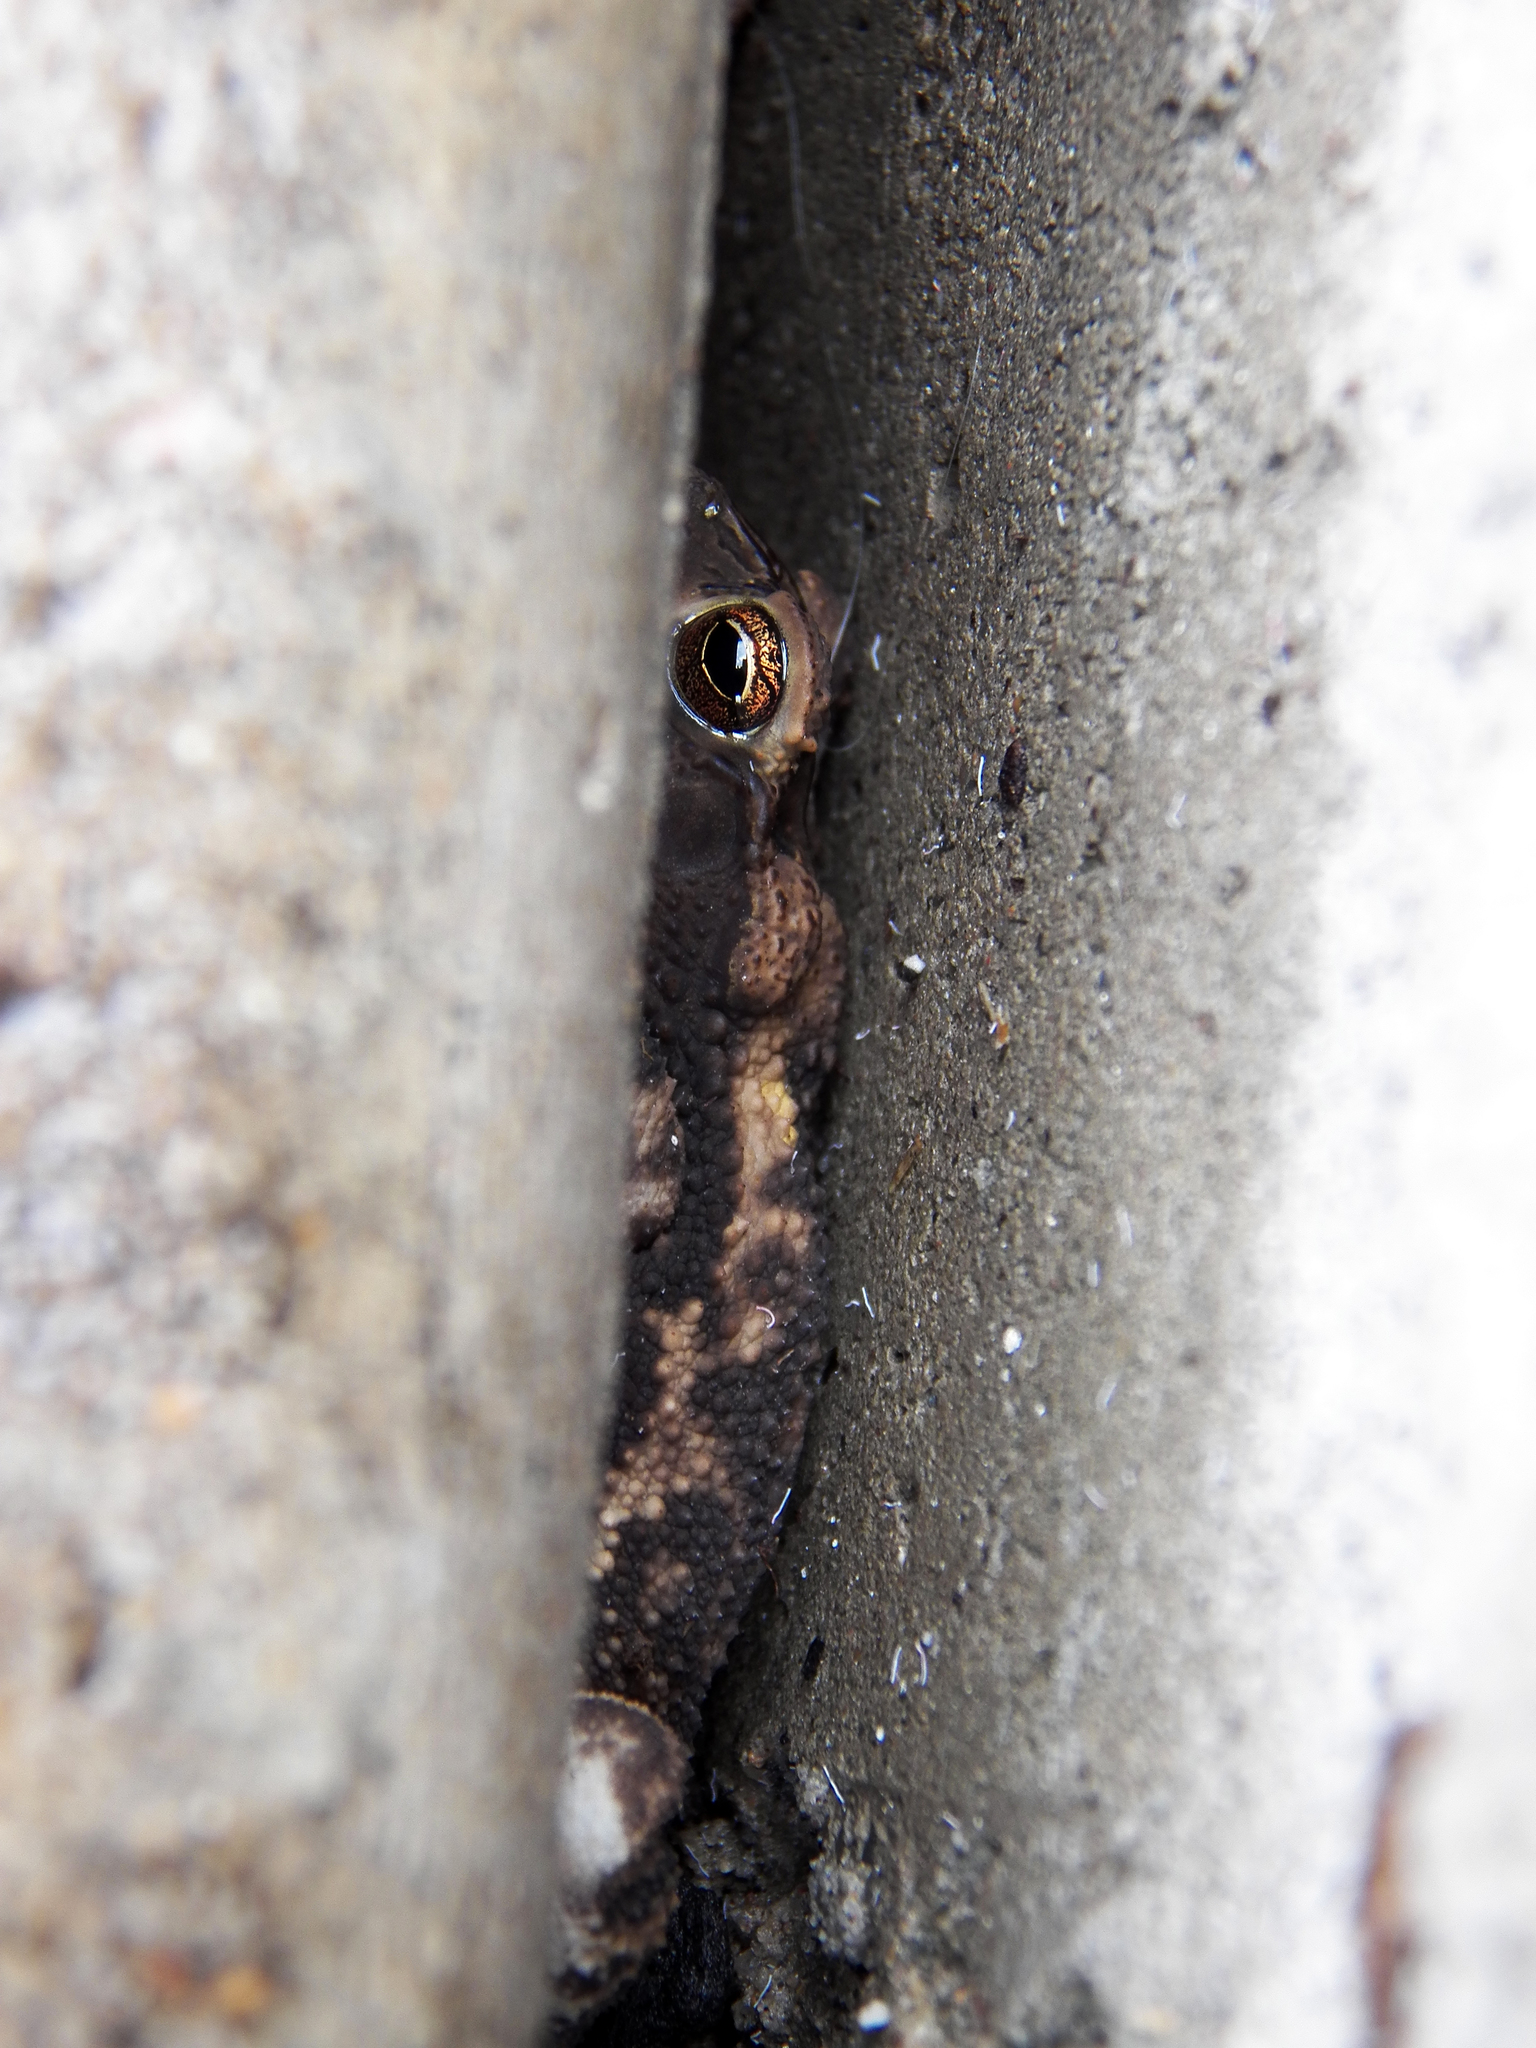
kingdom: Animalia
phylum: Chordata
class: Amphibia
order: Anura
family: Bufonidae
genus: Incilius
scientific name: Incilius nebulifer
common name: Gulf coast toad
